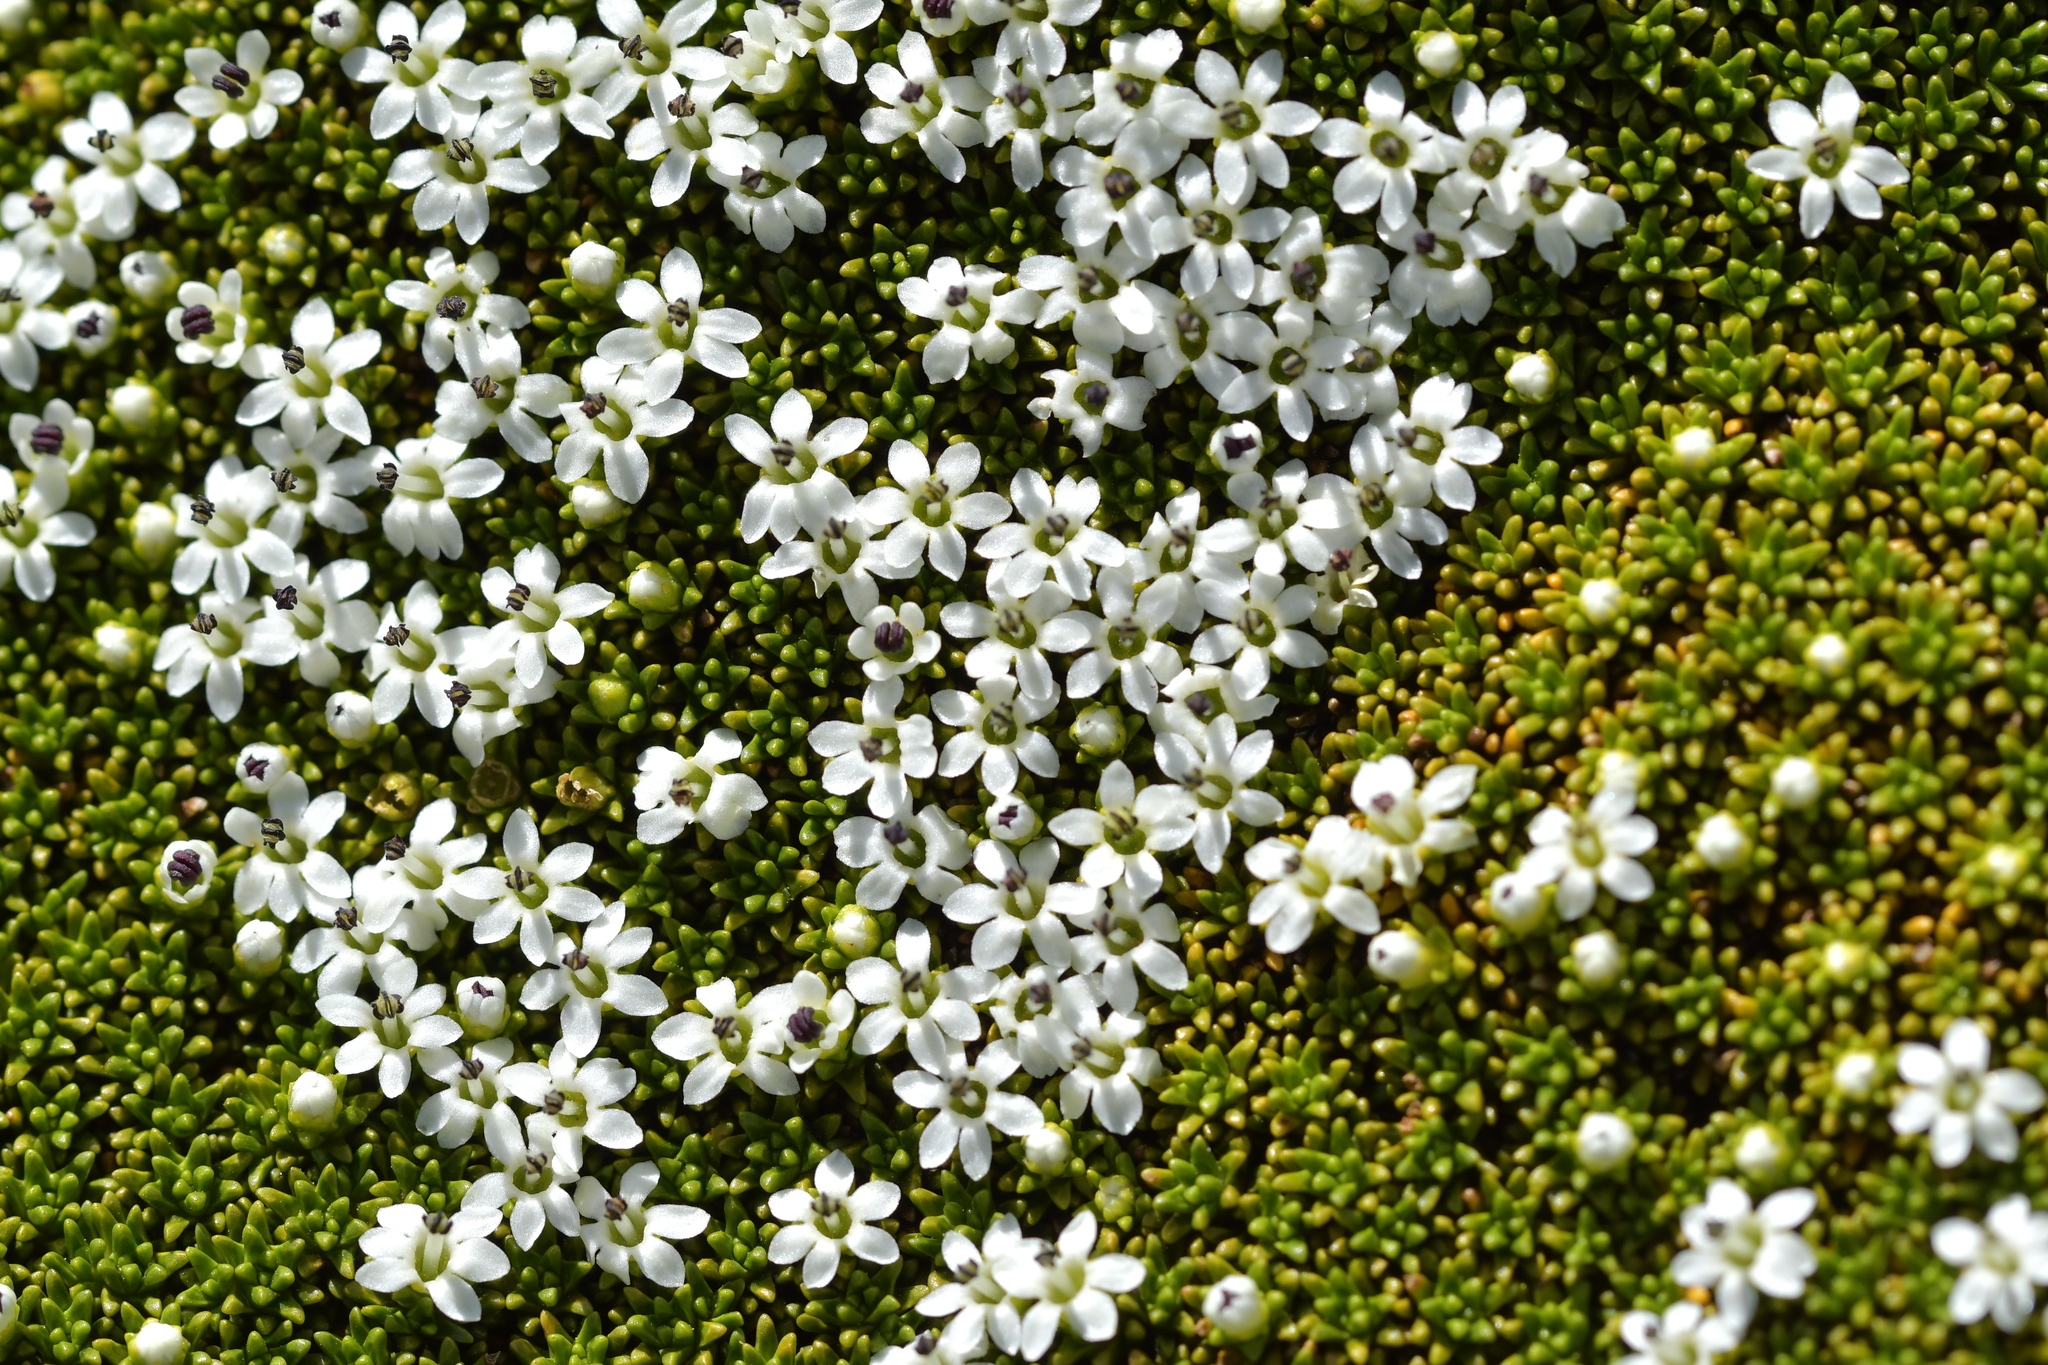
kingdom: Plantae
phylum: Tracheophyta
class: Magnoliopsida
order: Asterales
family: Stylidiaceae
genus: Phyllachne
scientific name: Phyllachne colensoi
